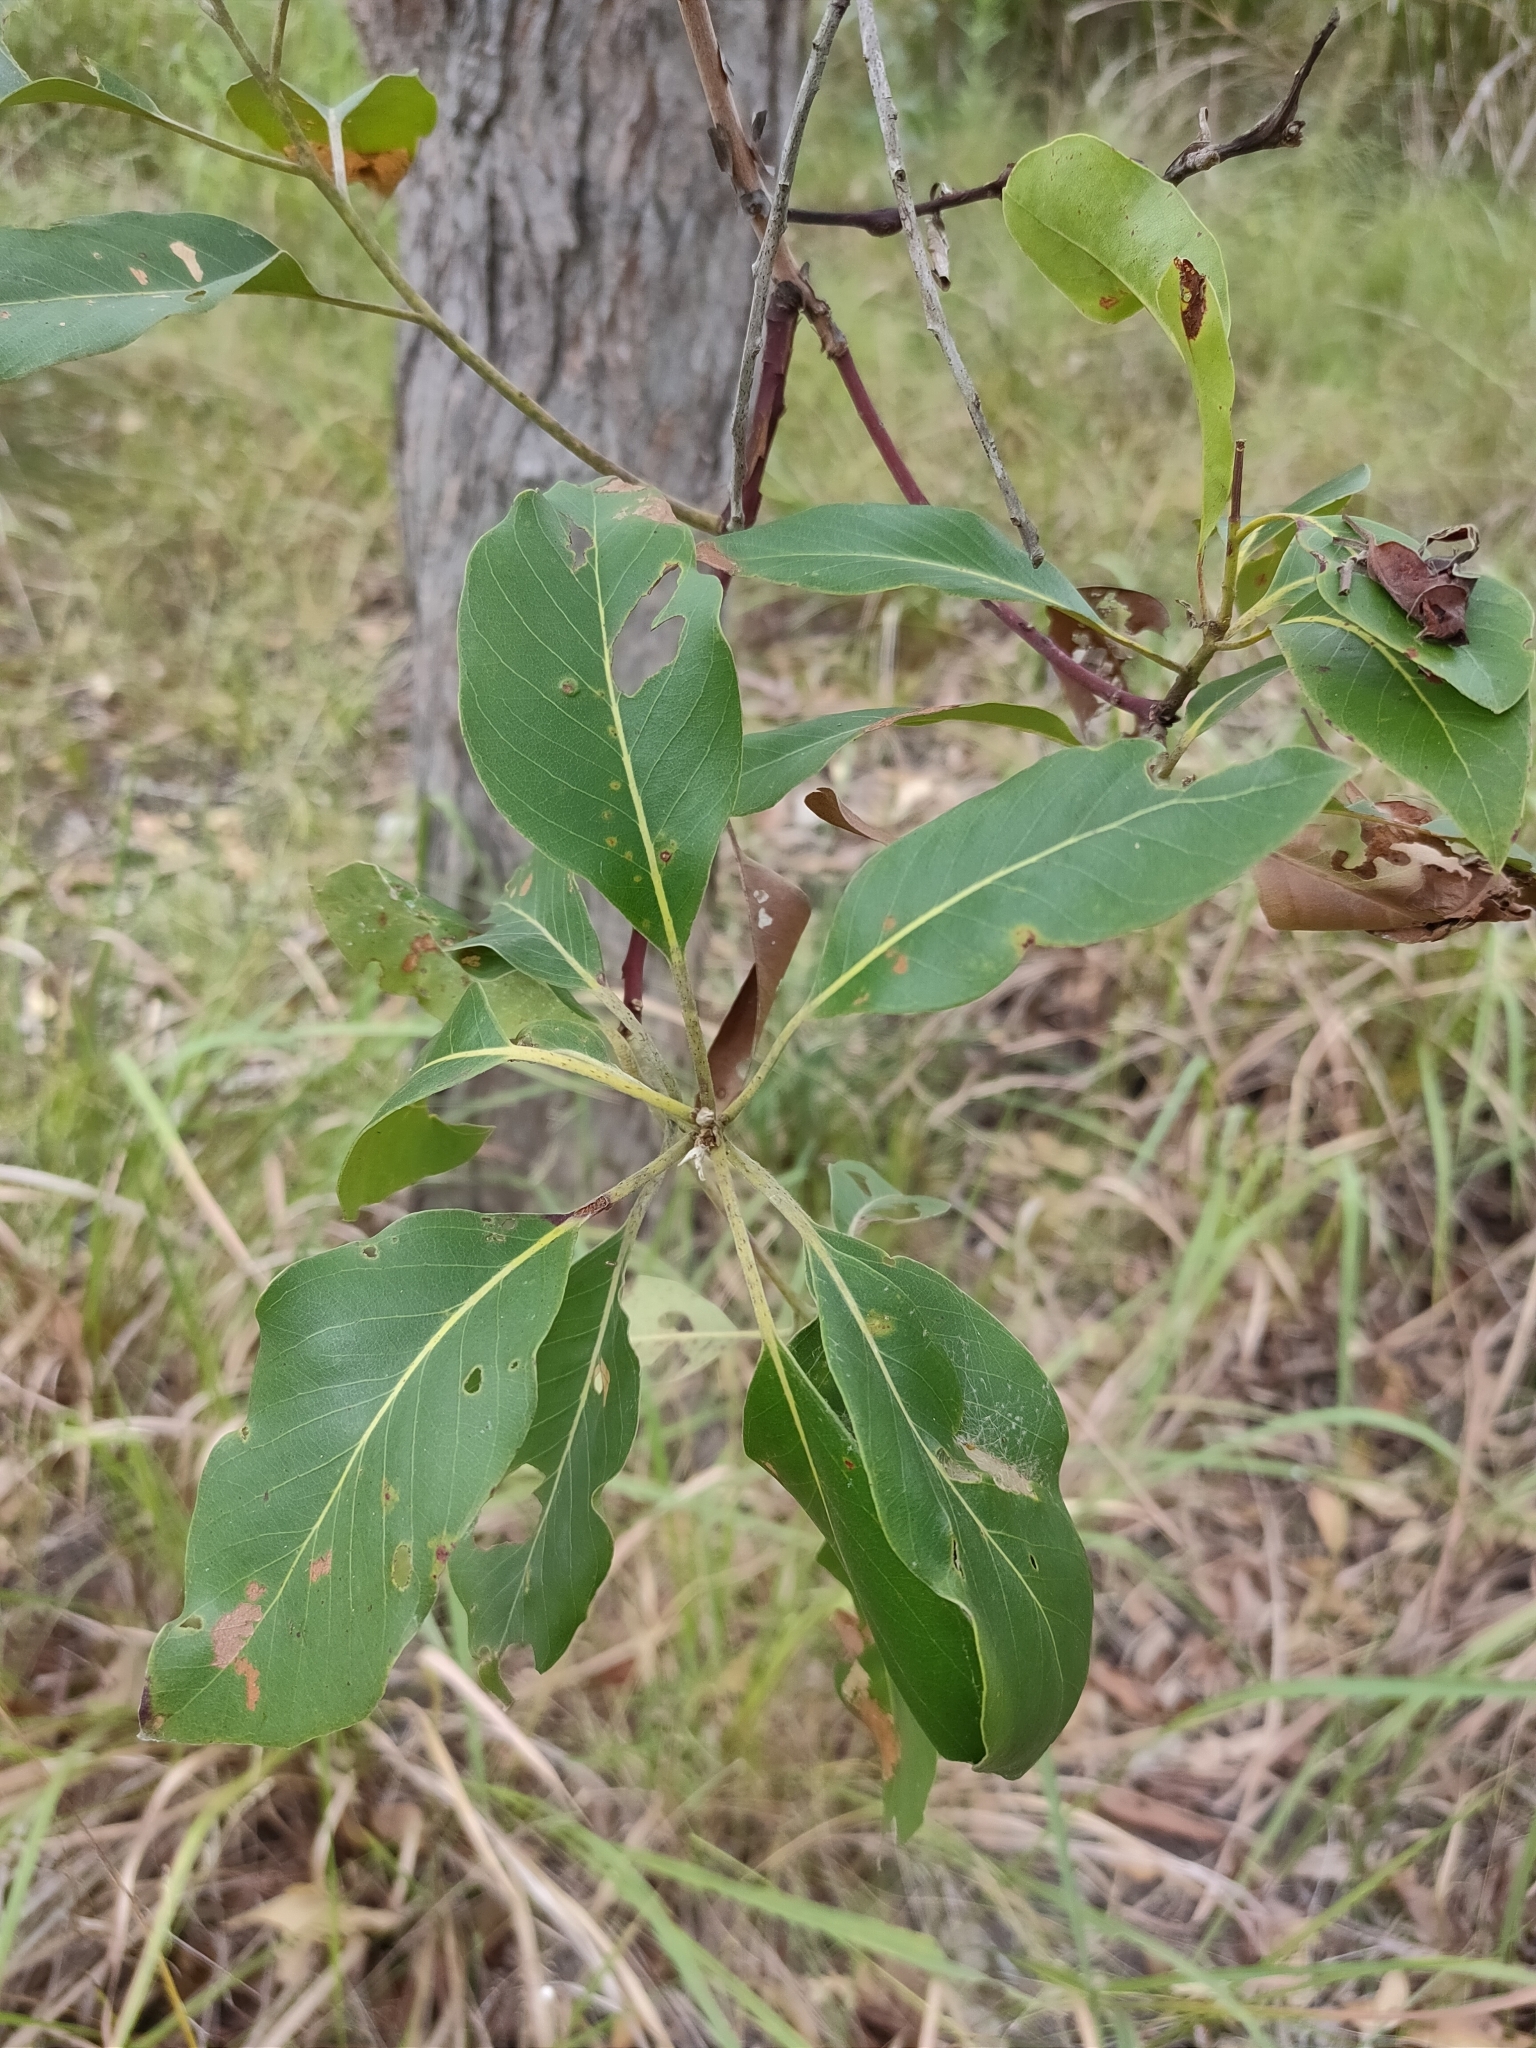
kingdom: Plantae
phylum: Tracheophyta
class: Magnoliopsida
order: Myrtales
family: Myrtaceae
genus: Lophostemon
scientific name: Lophostemon suaveolens
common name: Paperbark-mahogany
